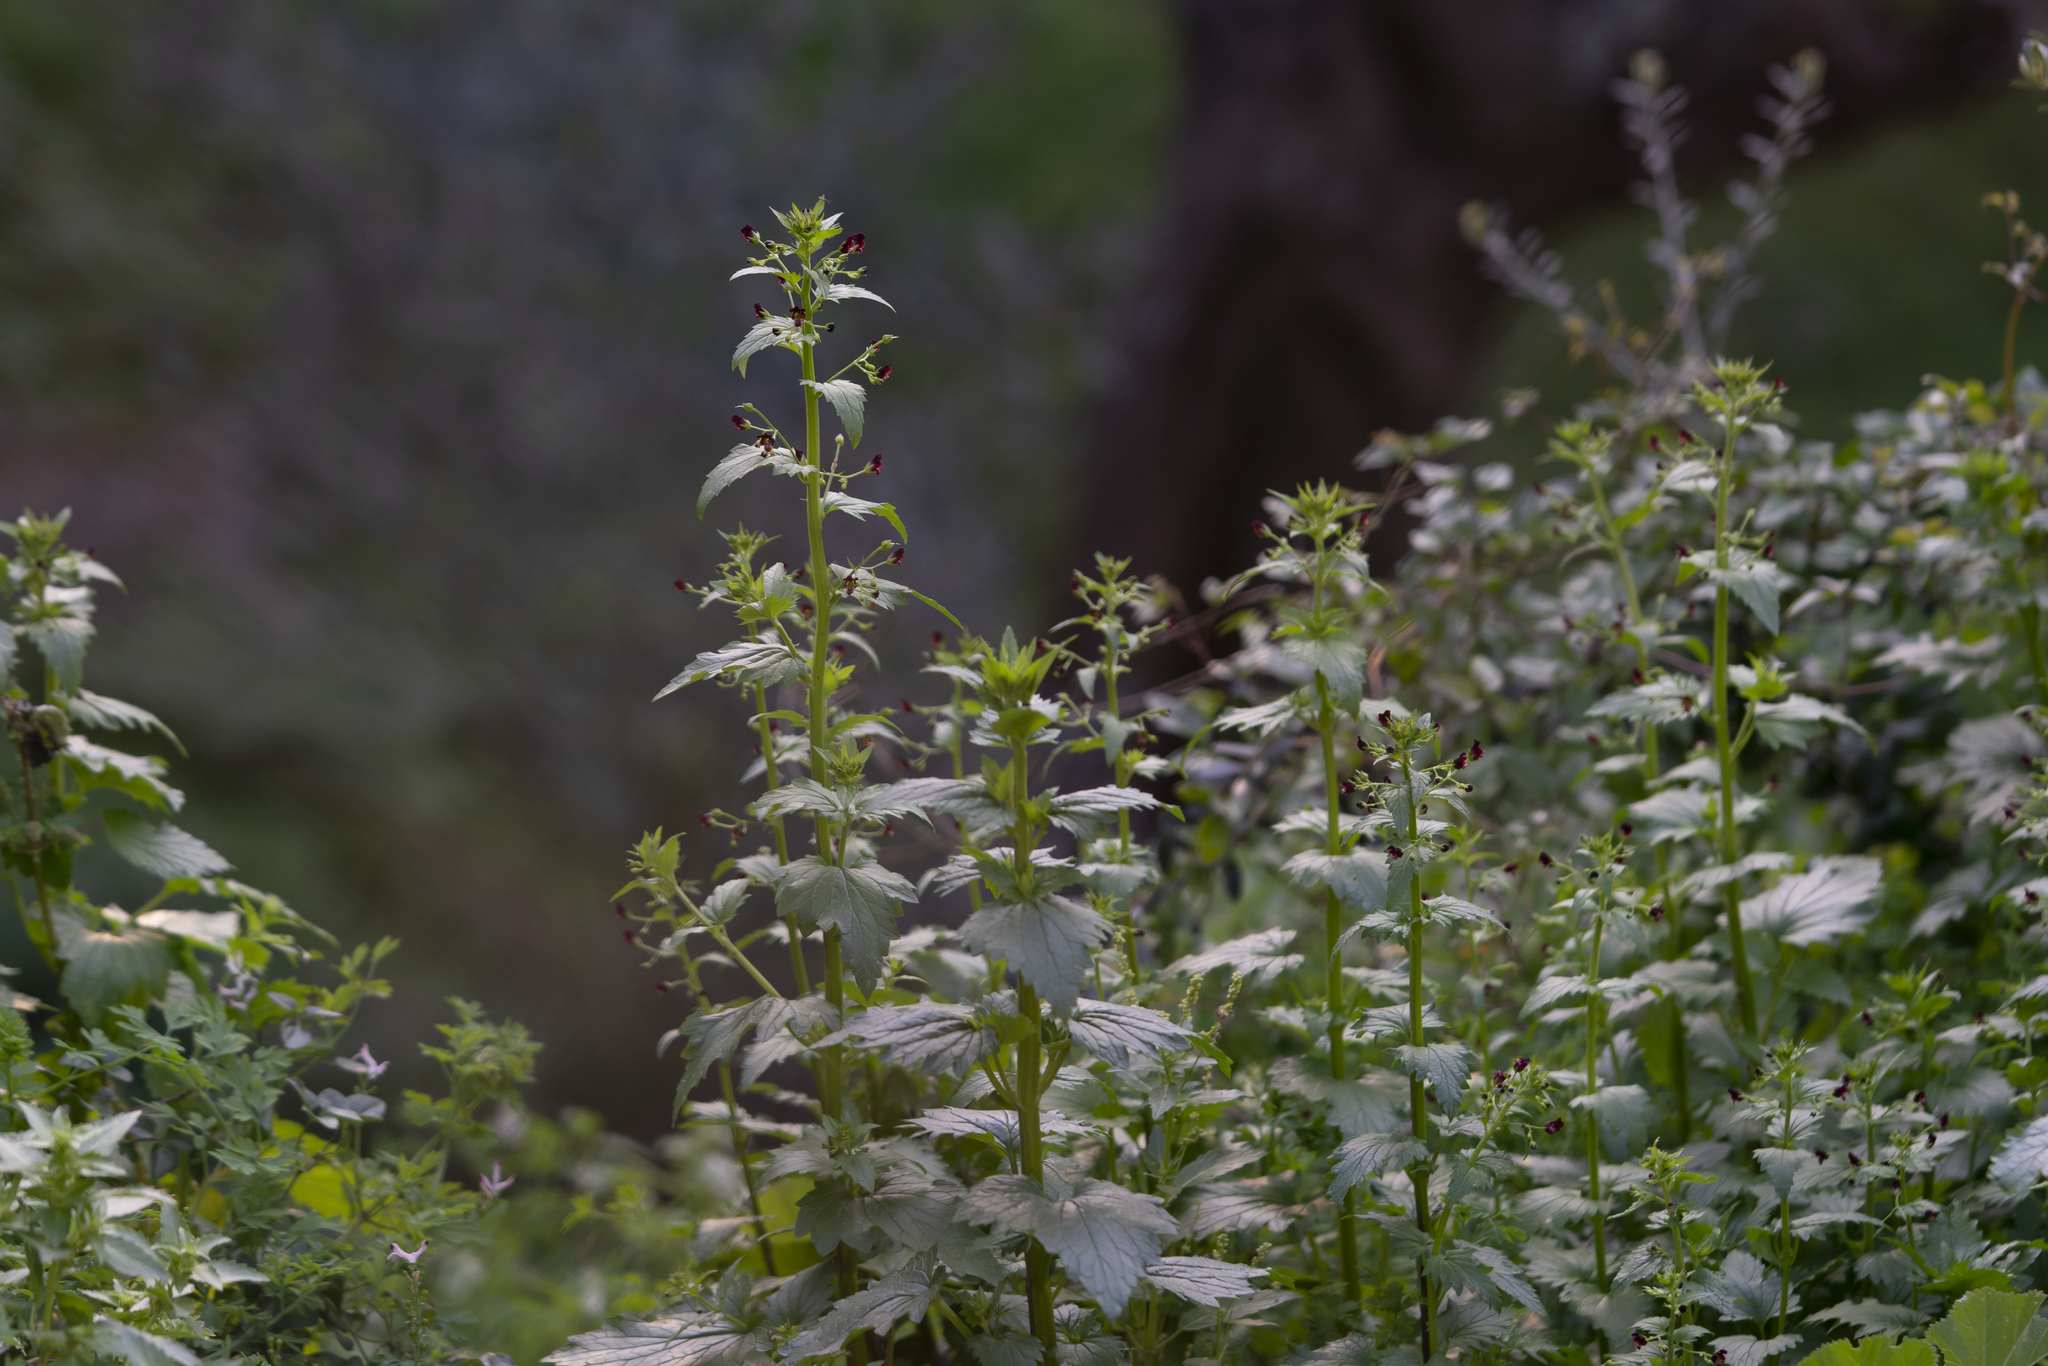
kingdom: Plantae
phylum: Tracheophyta
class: Magnoliopsida
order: Lamiales
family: Scrophulariaceae
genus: Scrophularia
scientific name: Scrophularia peregrina
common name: Mediterranean figwort
